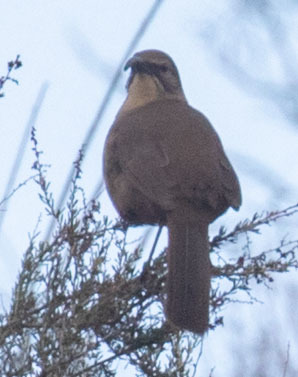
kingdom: Animalia
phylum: Chordata
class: Aves
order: Passeriformes
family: Mimidae
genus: Toxostoma
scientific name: Toxostoma redivivum
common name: California thrasher
